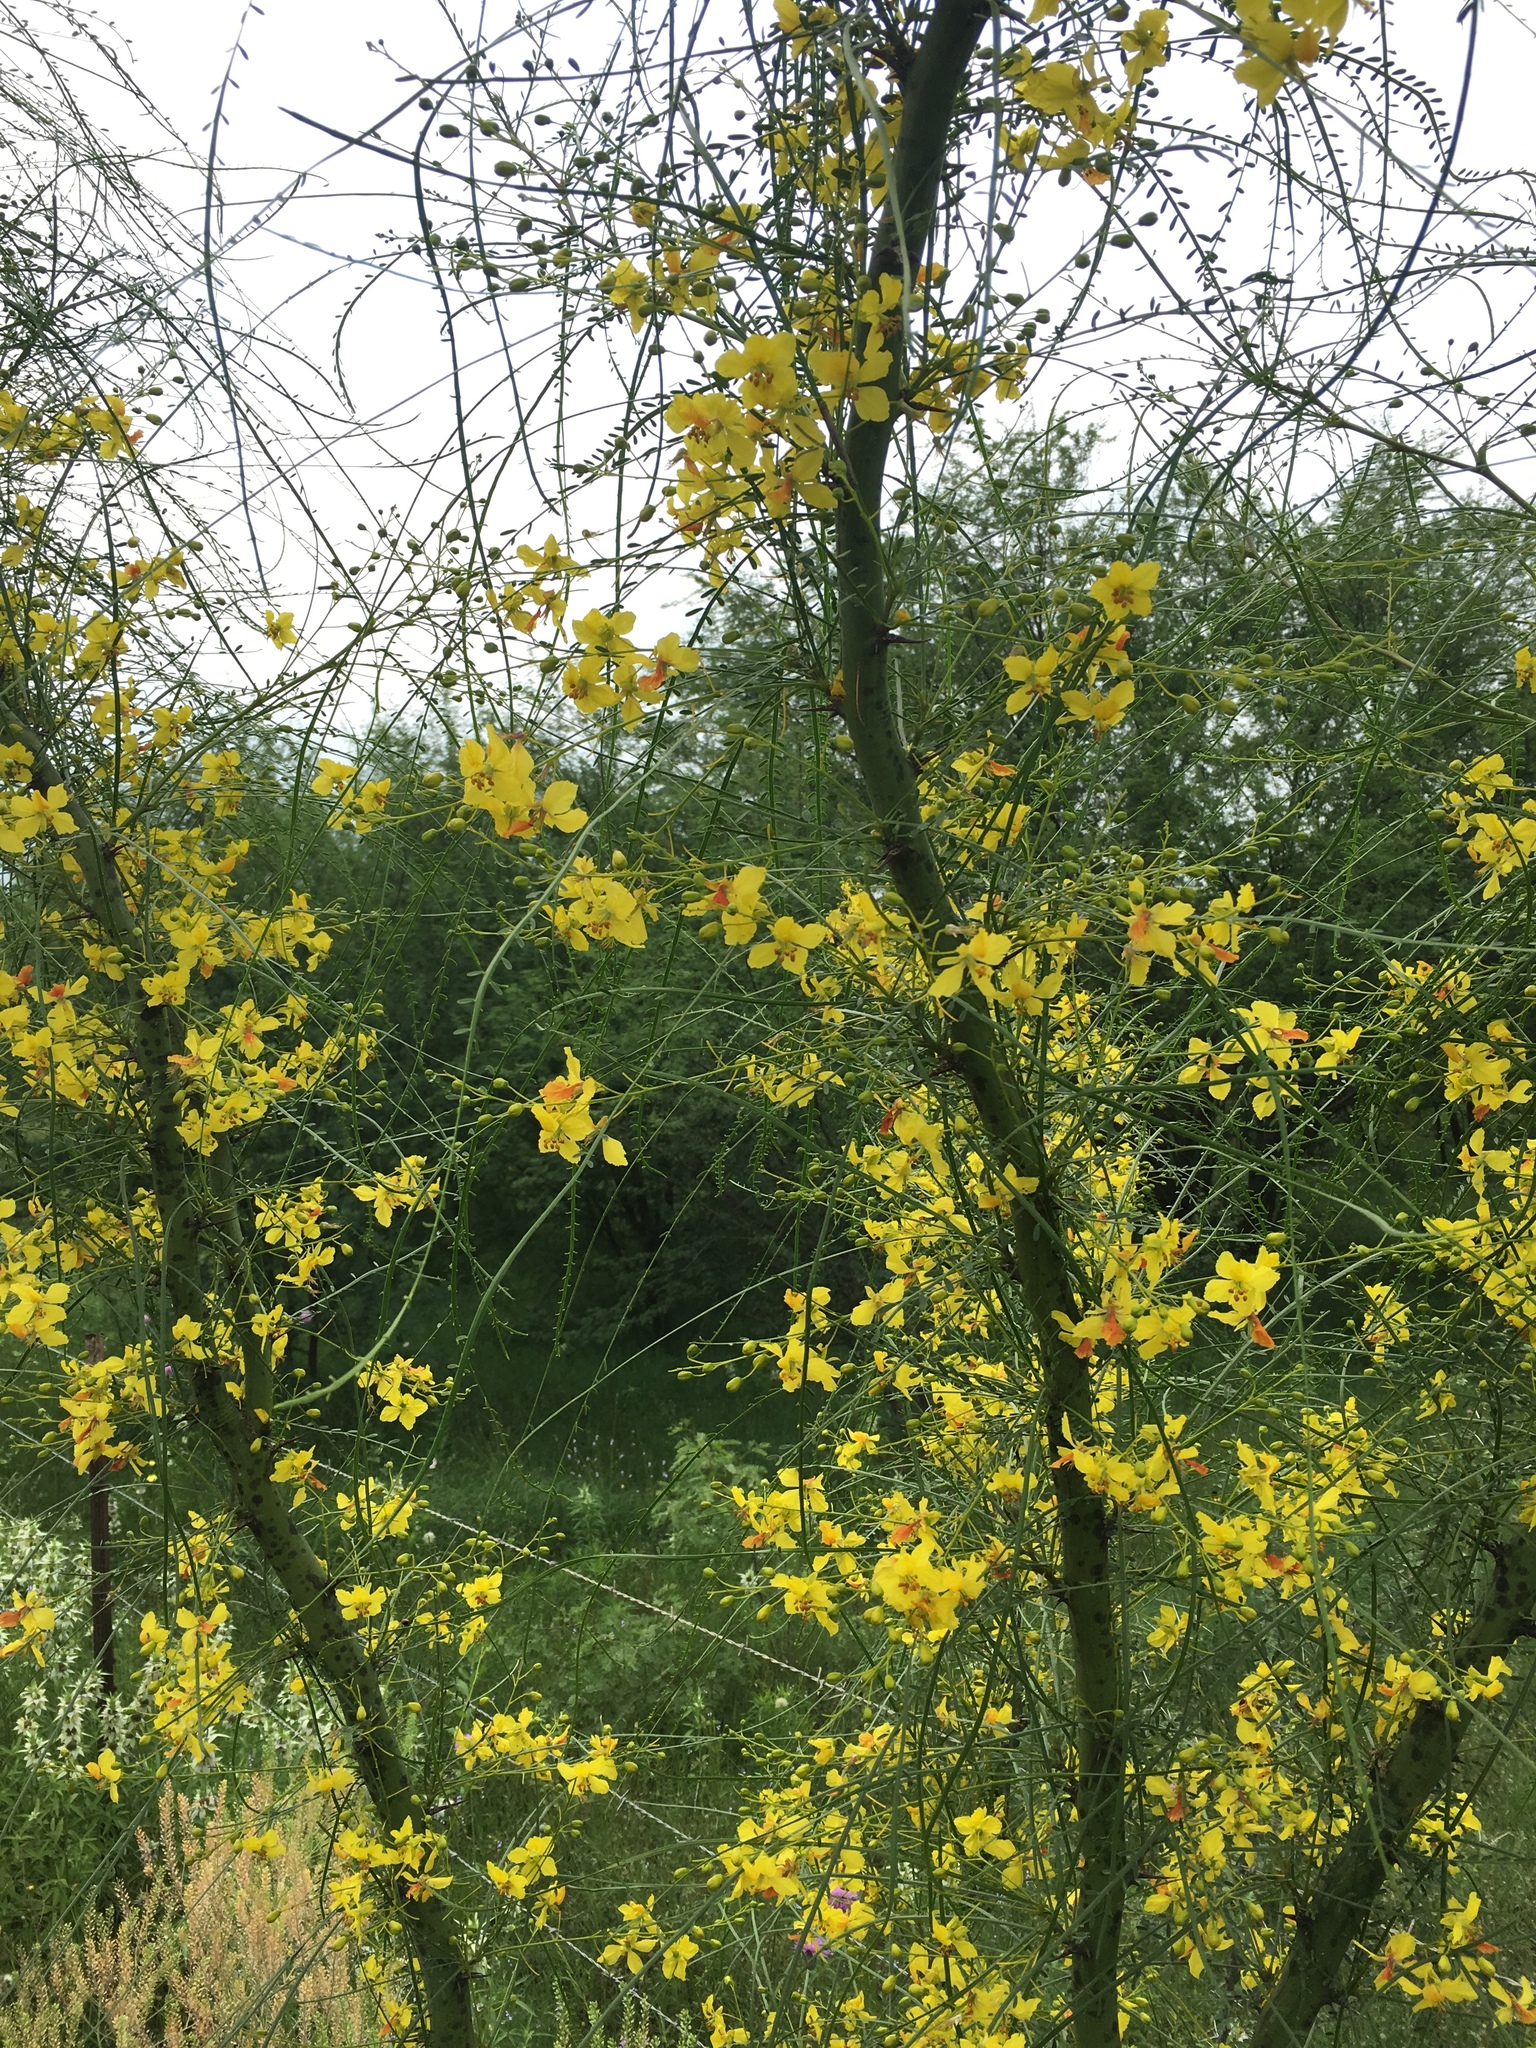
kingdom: Plantae
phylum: Tracheophyta
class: Magnoliopsida
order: Fabales
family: Fabaceae
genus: Parkinsonia
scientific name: Parkinsonia aculeata
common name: Jerusalem thorn
